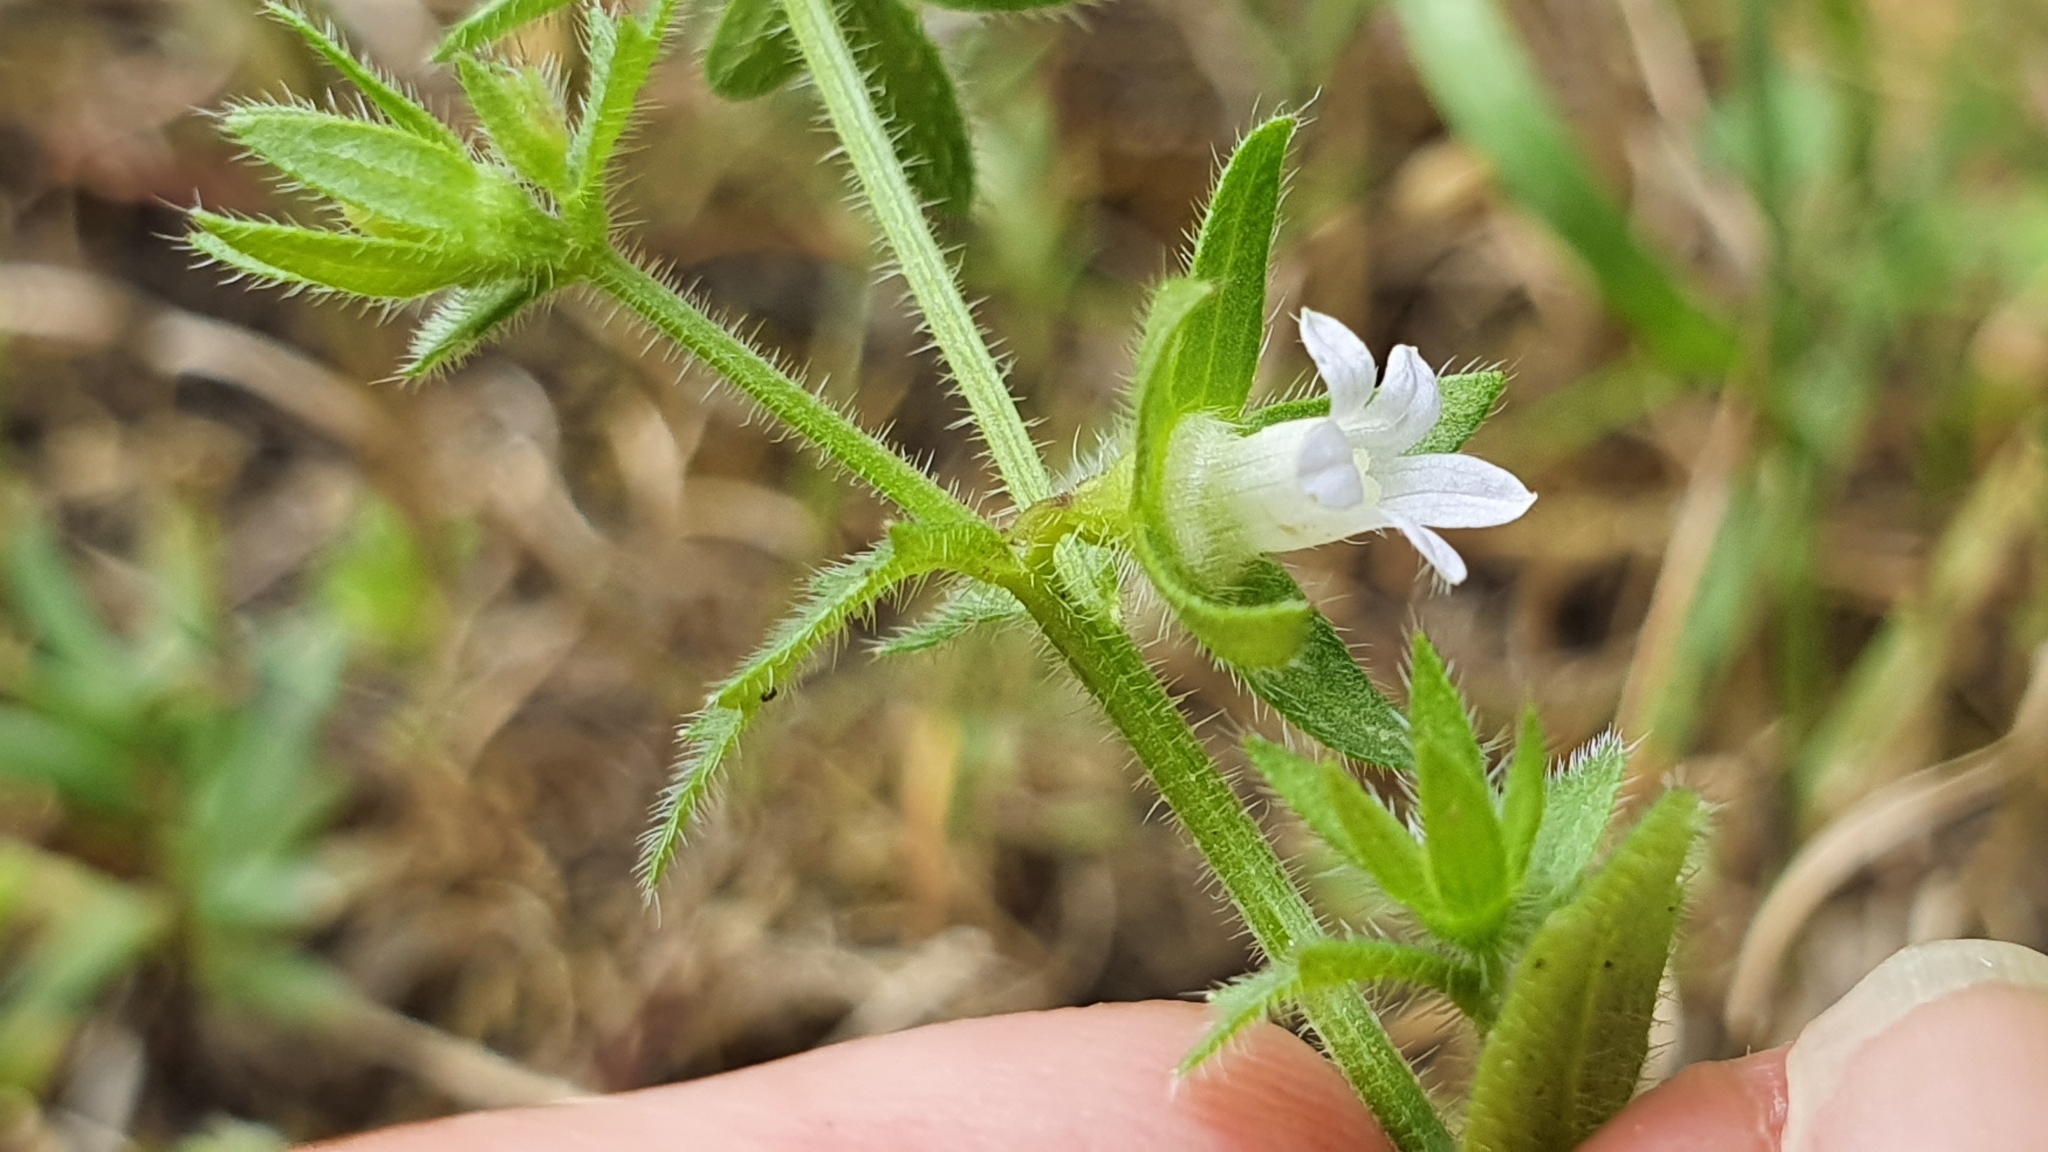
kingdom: Plantae
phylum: Tracheophyta
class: Magnoliopsida
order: Asterales
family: Campanulaceae
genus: Campanula
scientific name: Campanula erinus
